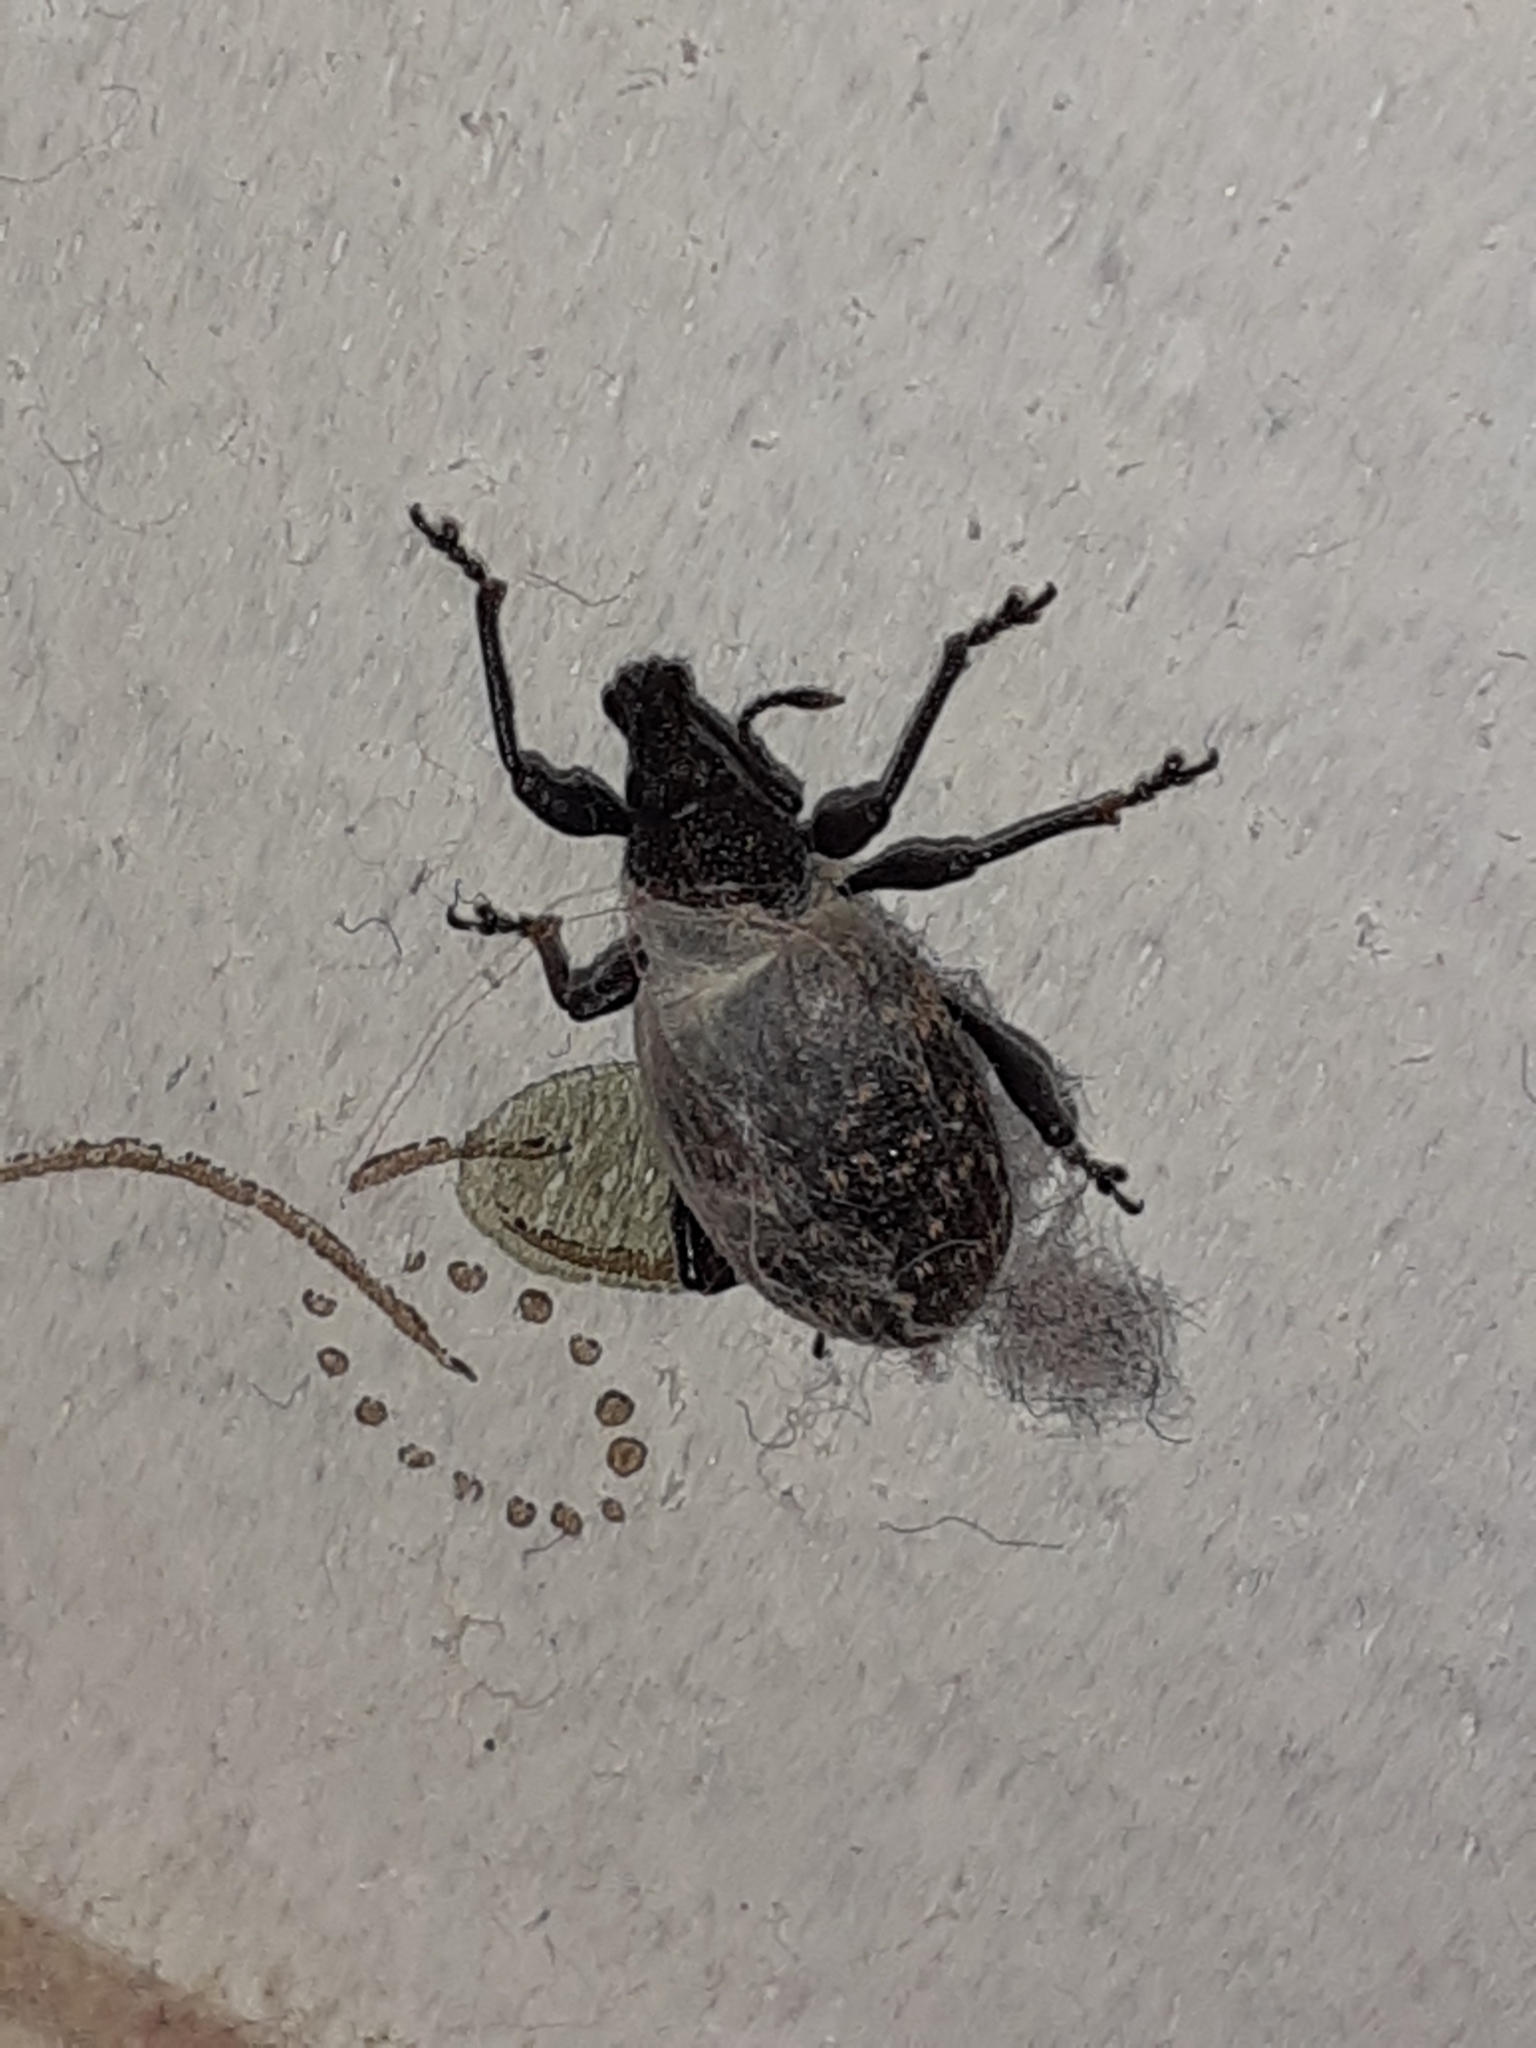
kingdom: Animalia
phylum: Arthropoda
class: Insecta
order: Coleoptera
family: Curculionidae
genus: Otiorhynchus
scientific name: Otiorhynchus sulcatus
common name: Black vine weevil
